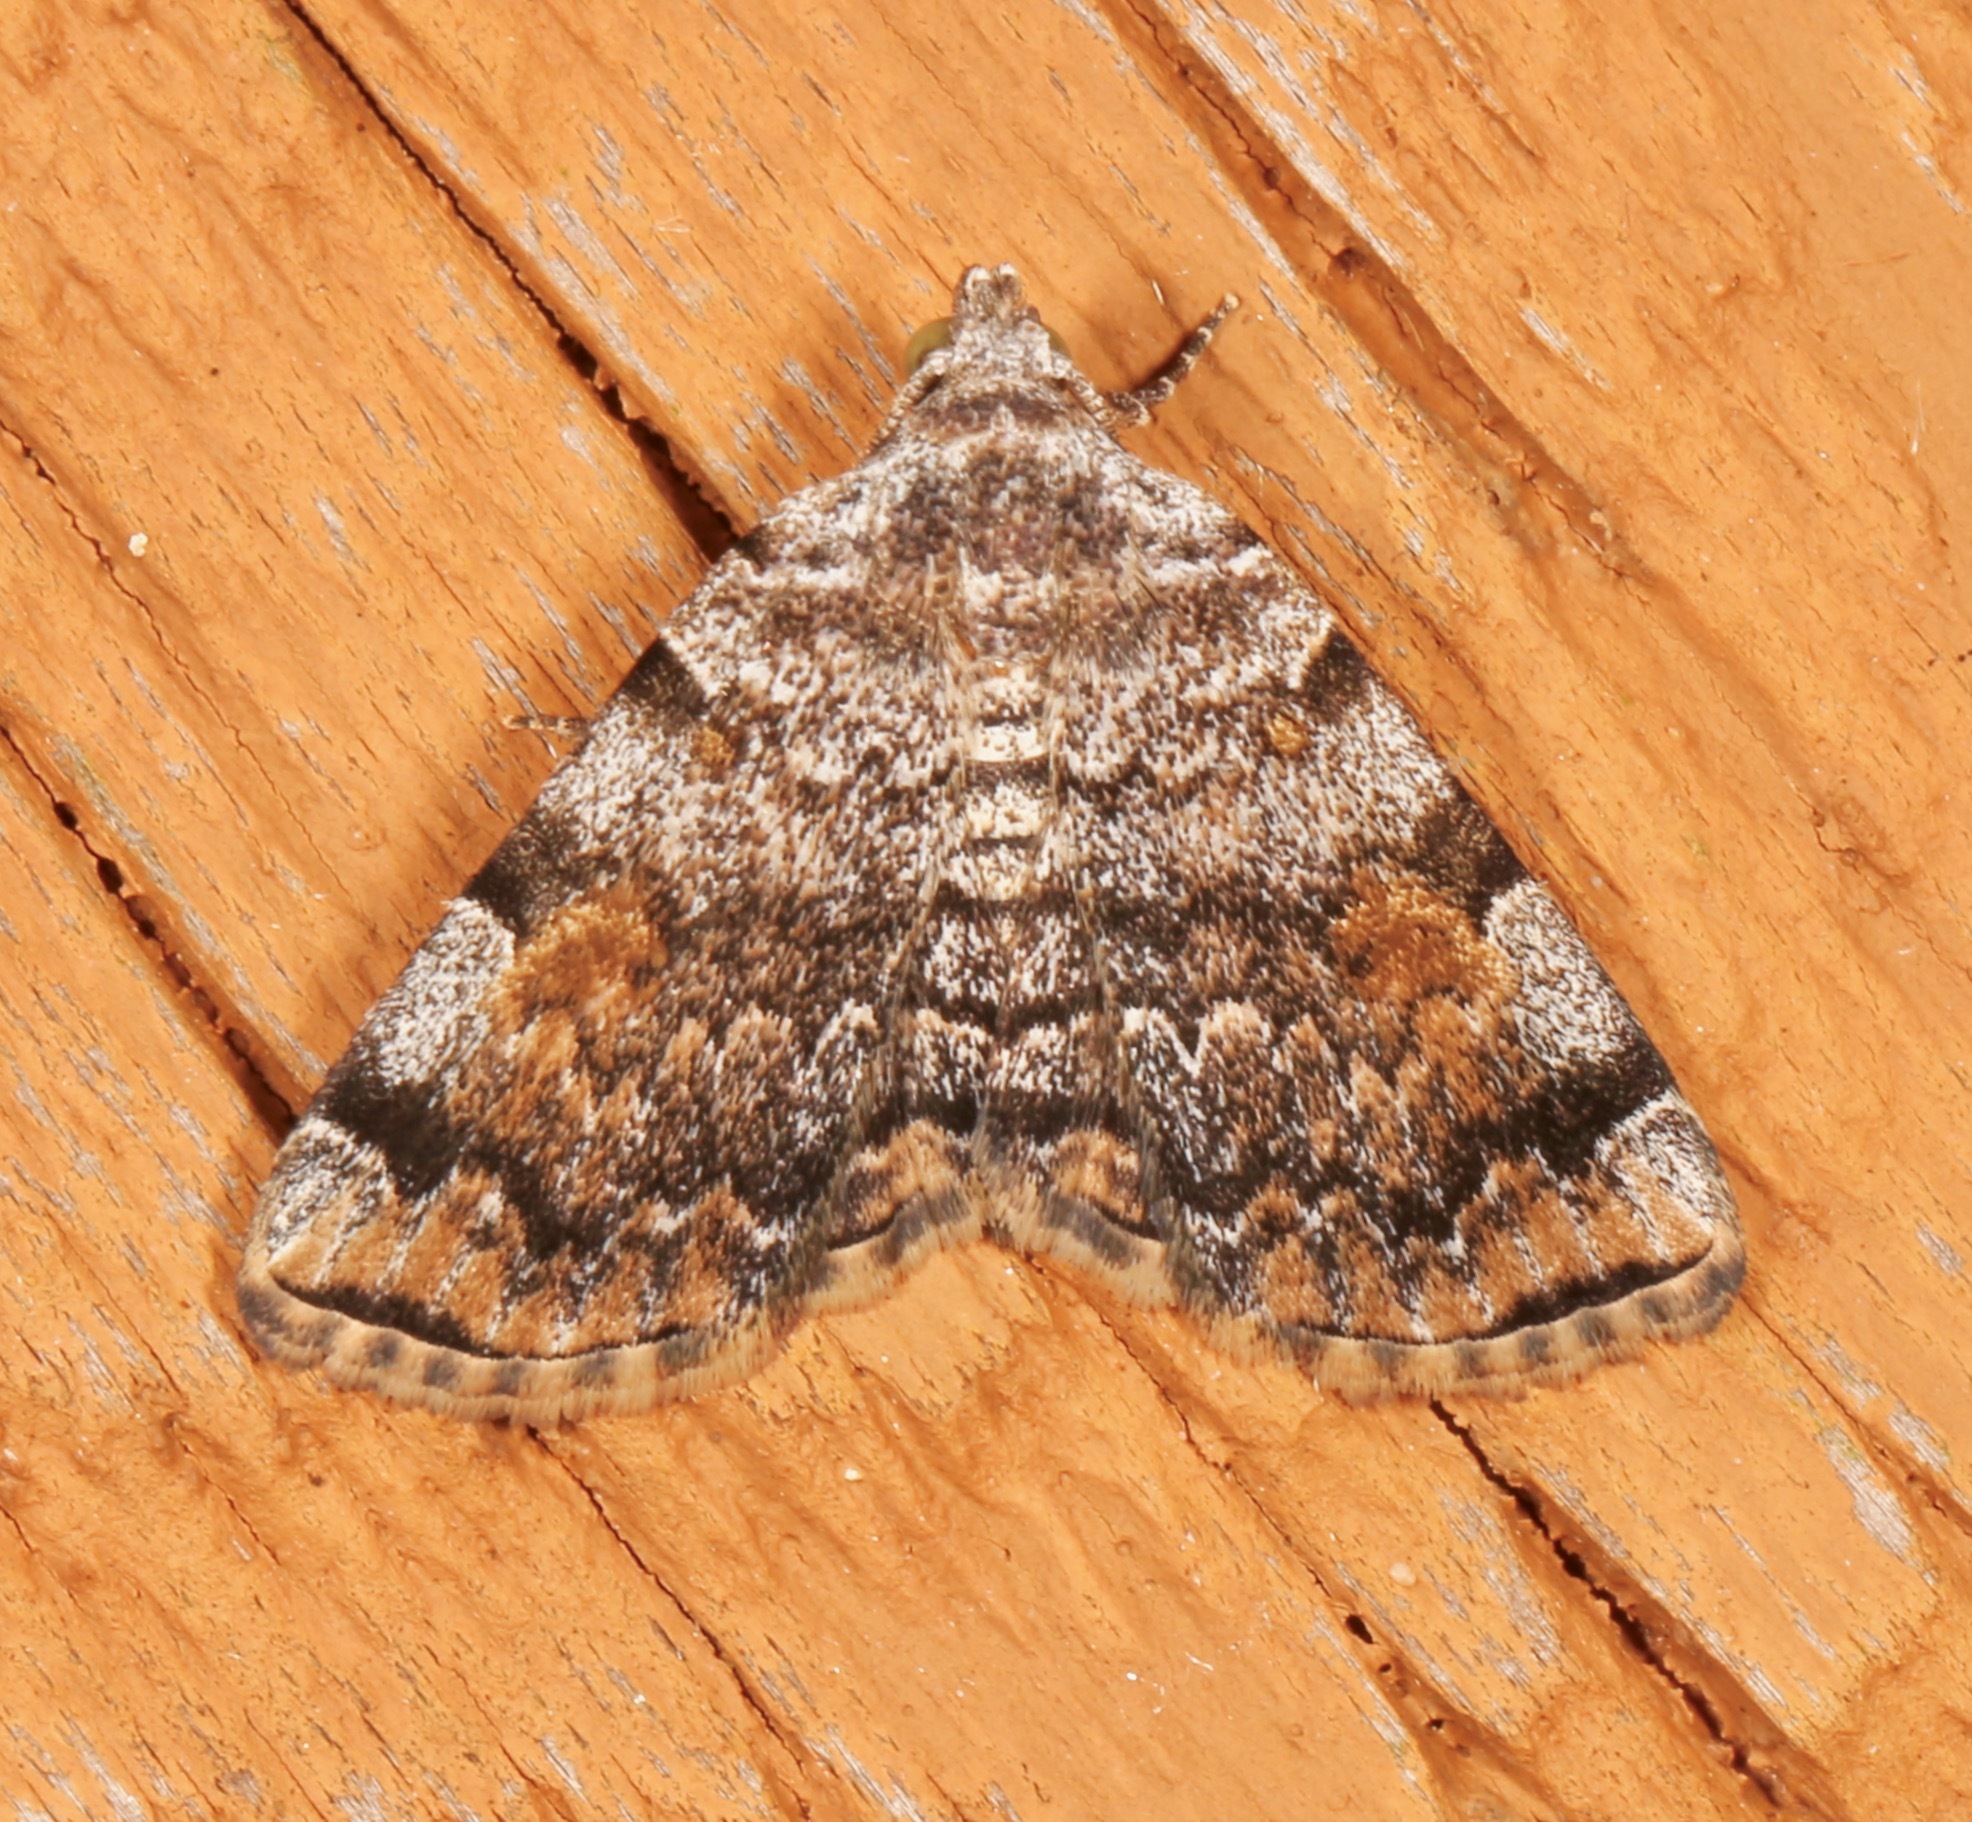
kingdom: Animalia
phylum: Arthropoda
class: Insecta
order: Lepidoptera
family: Erebidae
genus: Idia
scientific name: Idia americalis
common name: American idia moth
